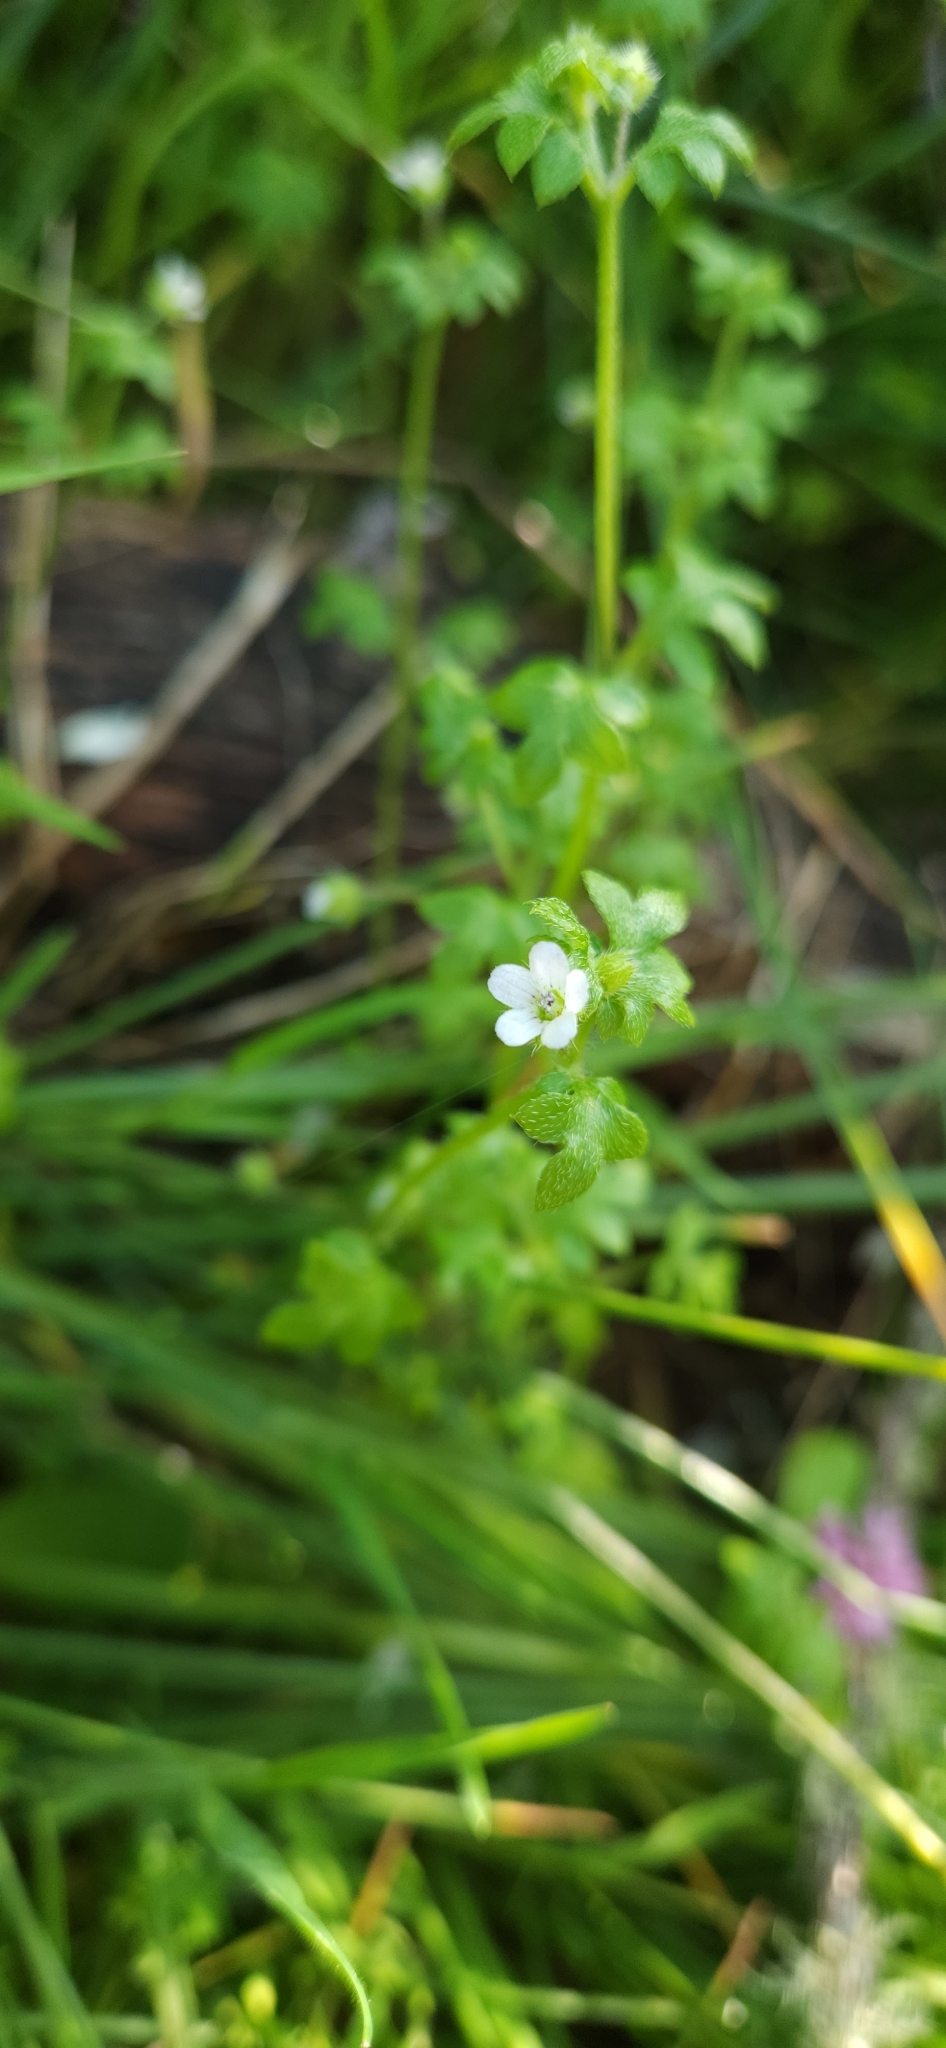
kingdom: Plantae
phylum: Tracheophyta
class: Magnoliopsida
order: Boraginales
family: Hydrophyllaceae
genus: Nemophila
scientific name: Nemophila parviflora
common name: Small-flowered baby-blue-eyes
